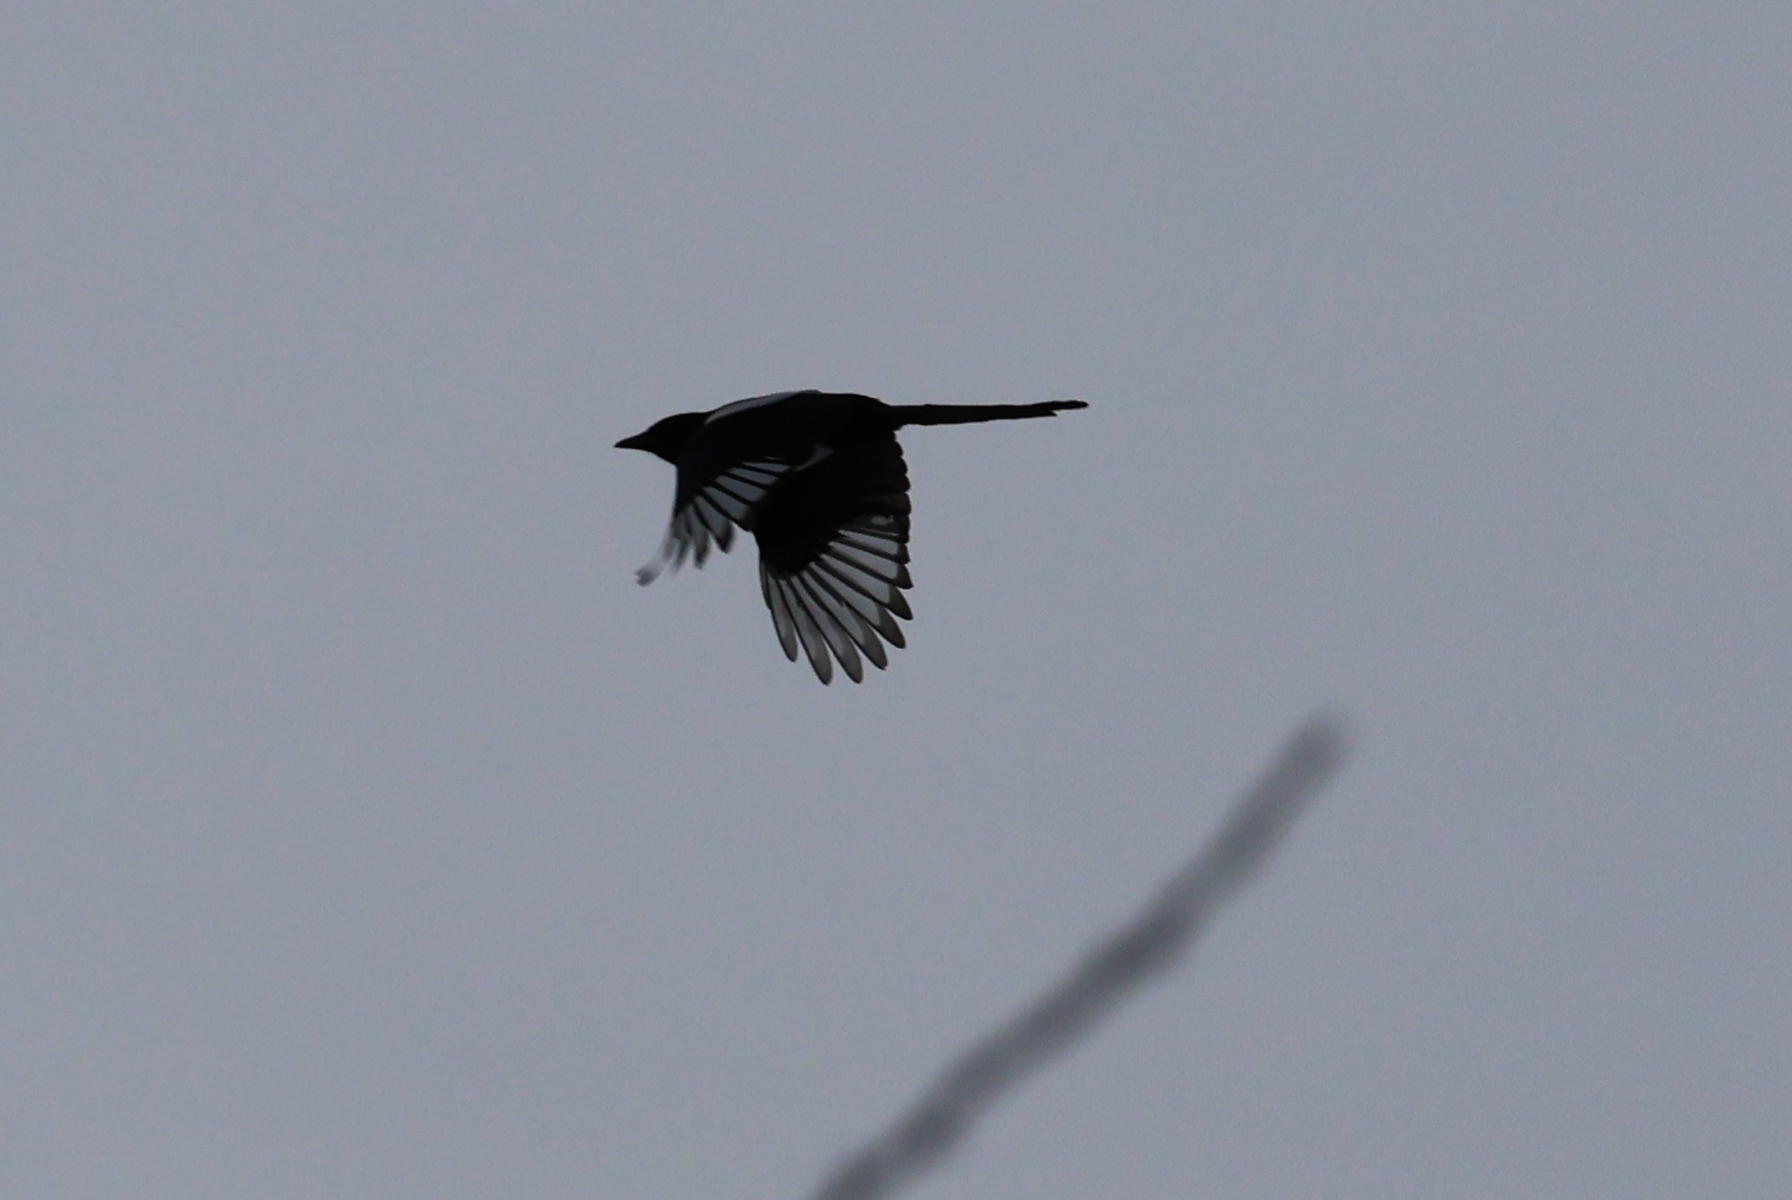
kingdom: Animalia
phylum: Chordata
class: Aves
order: Passeriformes
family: Corvidae
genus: Pica
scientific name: Pica pica
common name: Eurasian magpie
